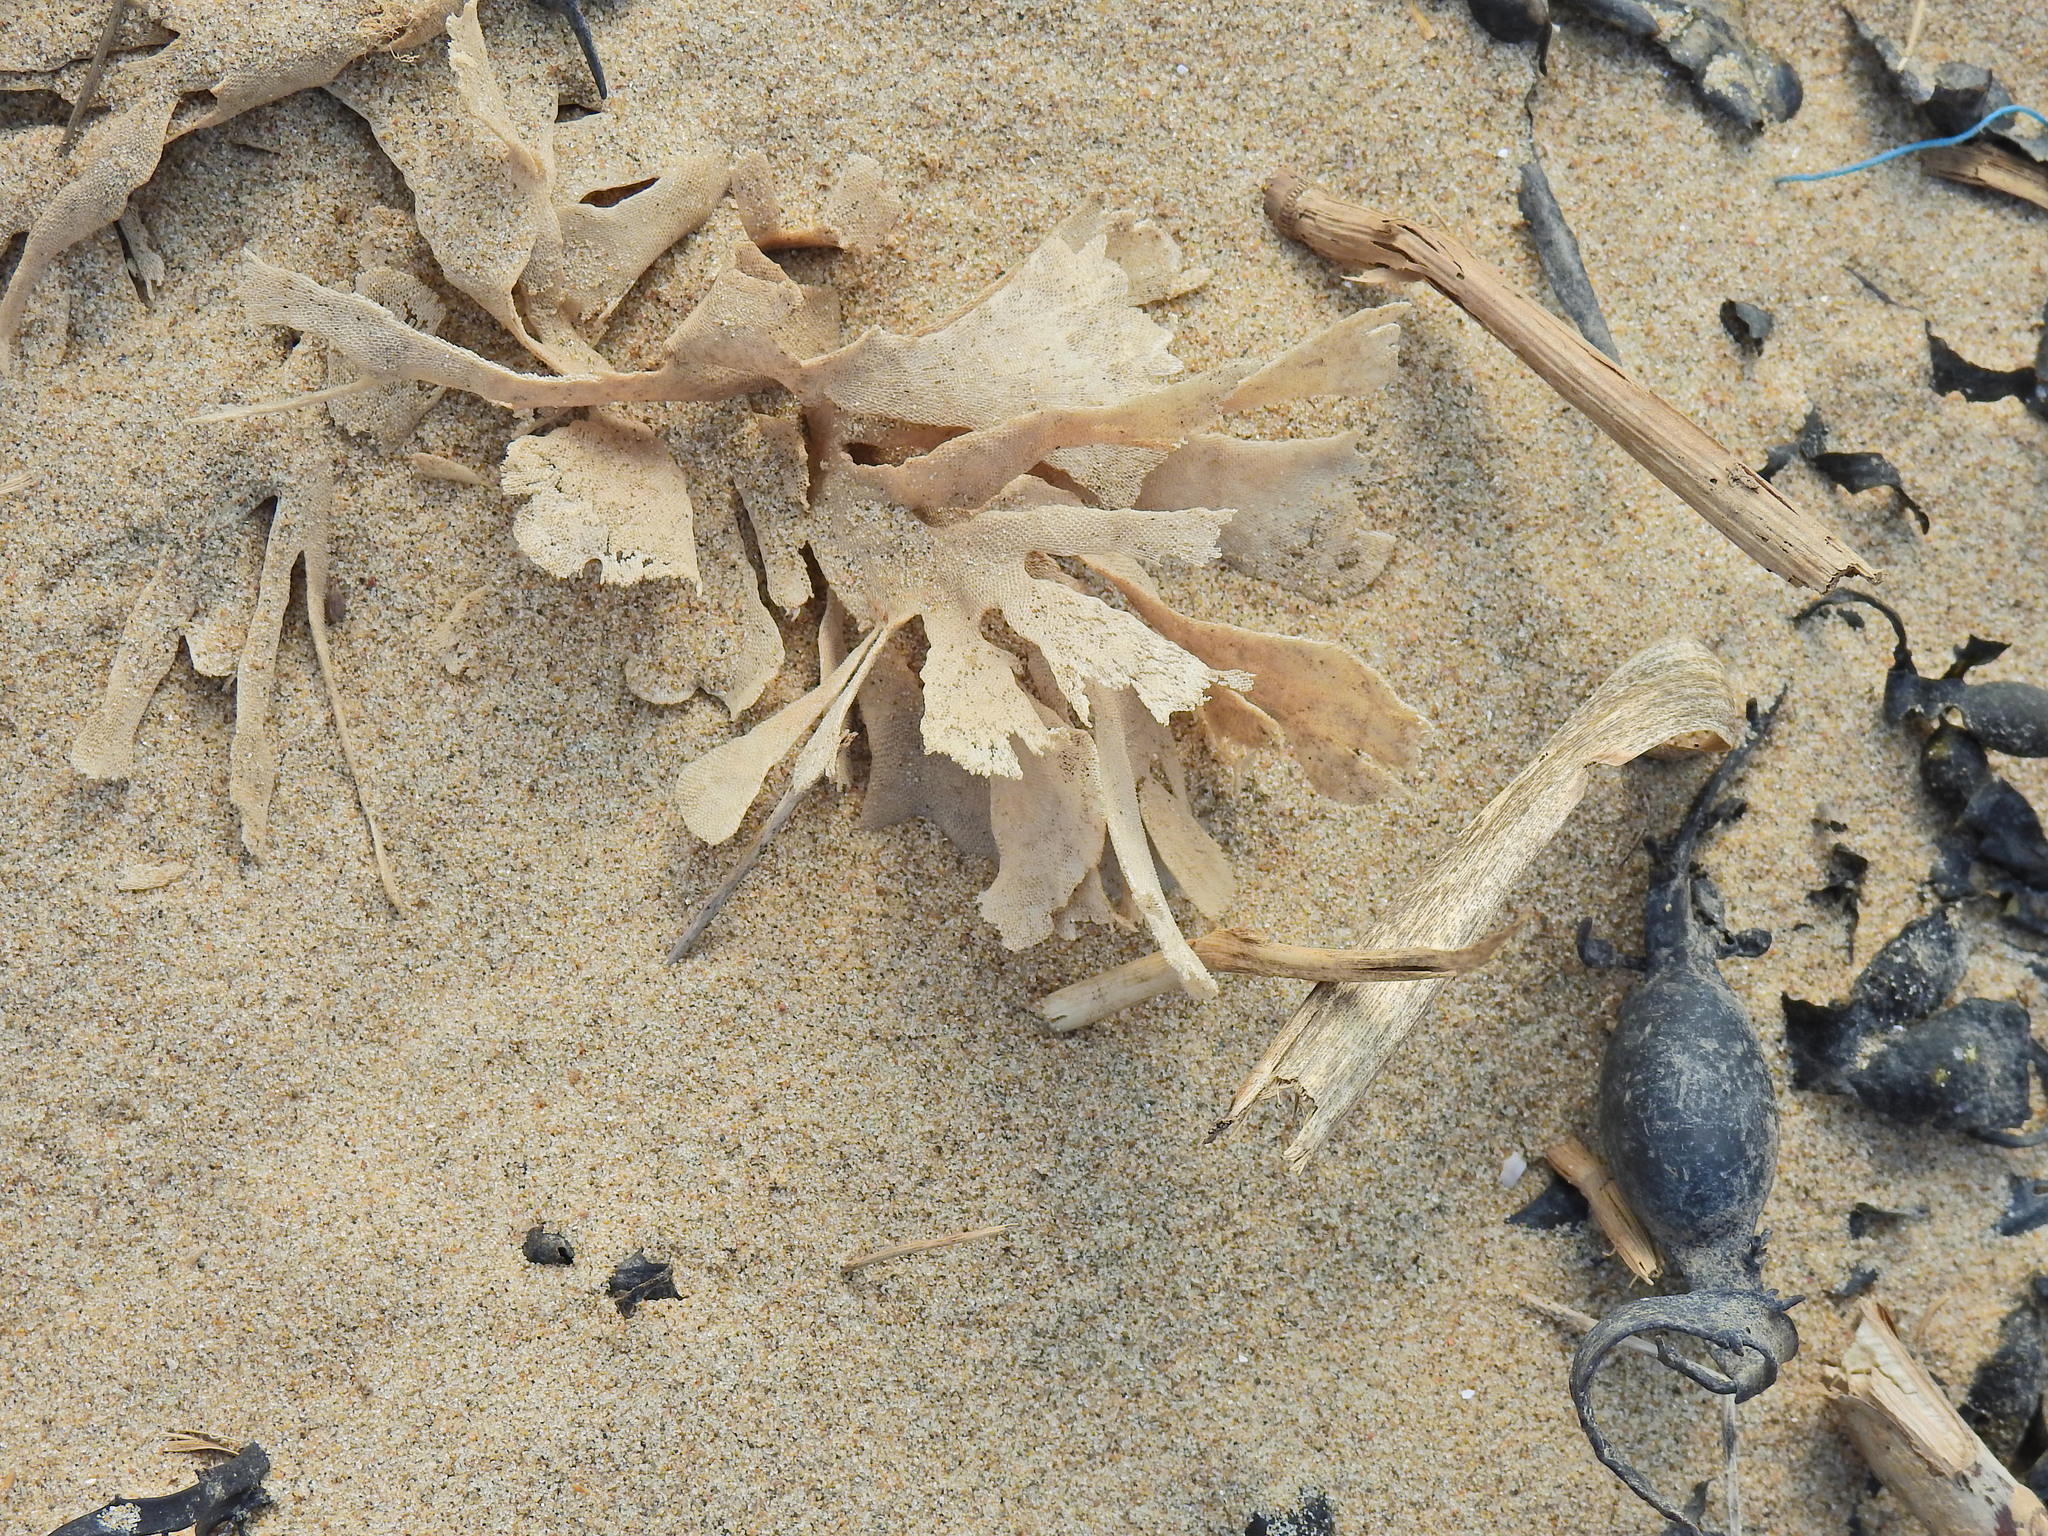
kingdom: Animalia
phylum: Bryozoa
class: Gymnolaemata
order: Cheilostomatida
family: Flustridae
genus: Flustra
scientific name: Flustra foliacea
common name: Hornwrack
